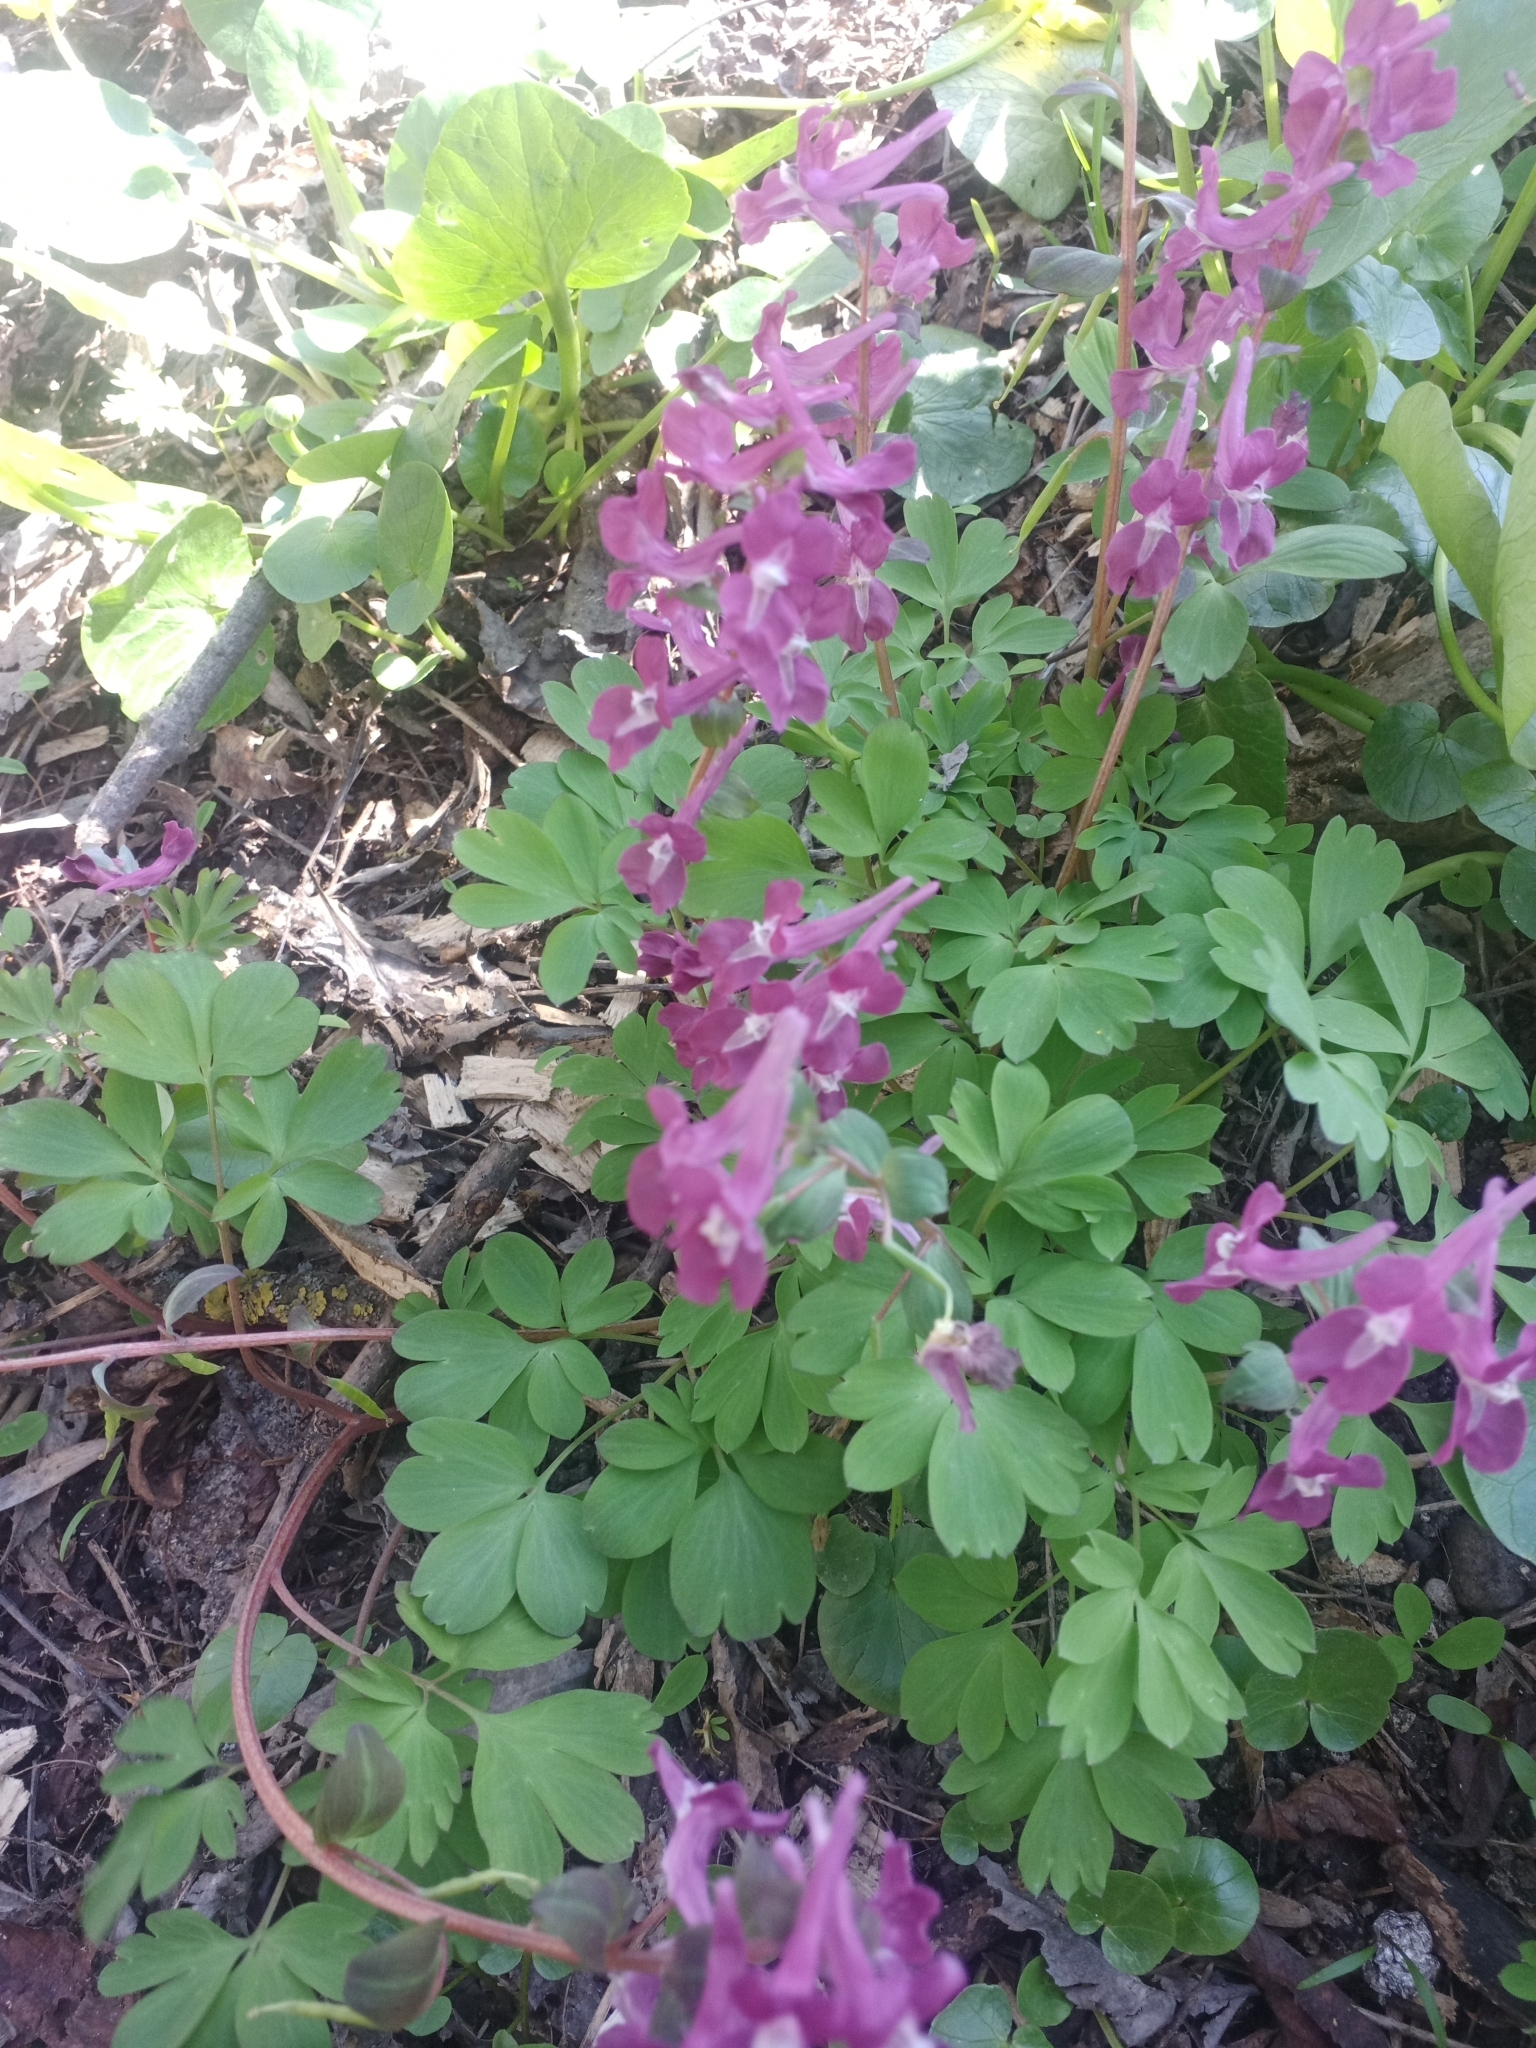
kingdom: Plantae
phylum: Tracheophyta
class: Magnoliopsida
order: Ranunculales
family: Papaveraceae
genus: Corydalis
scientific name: Corydalis caucasica
